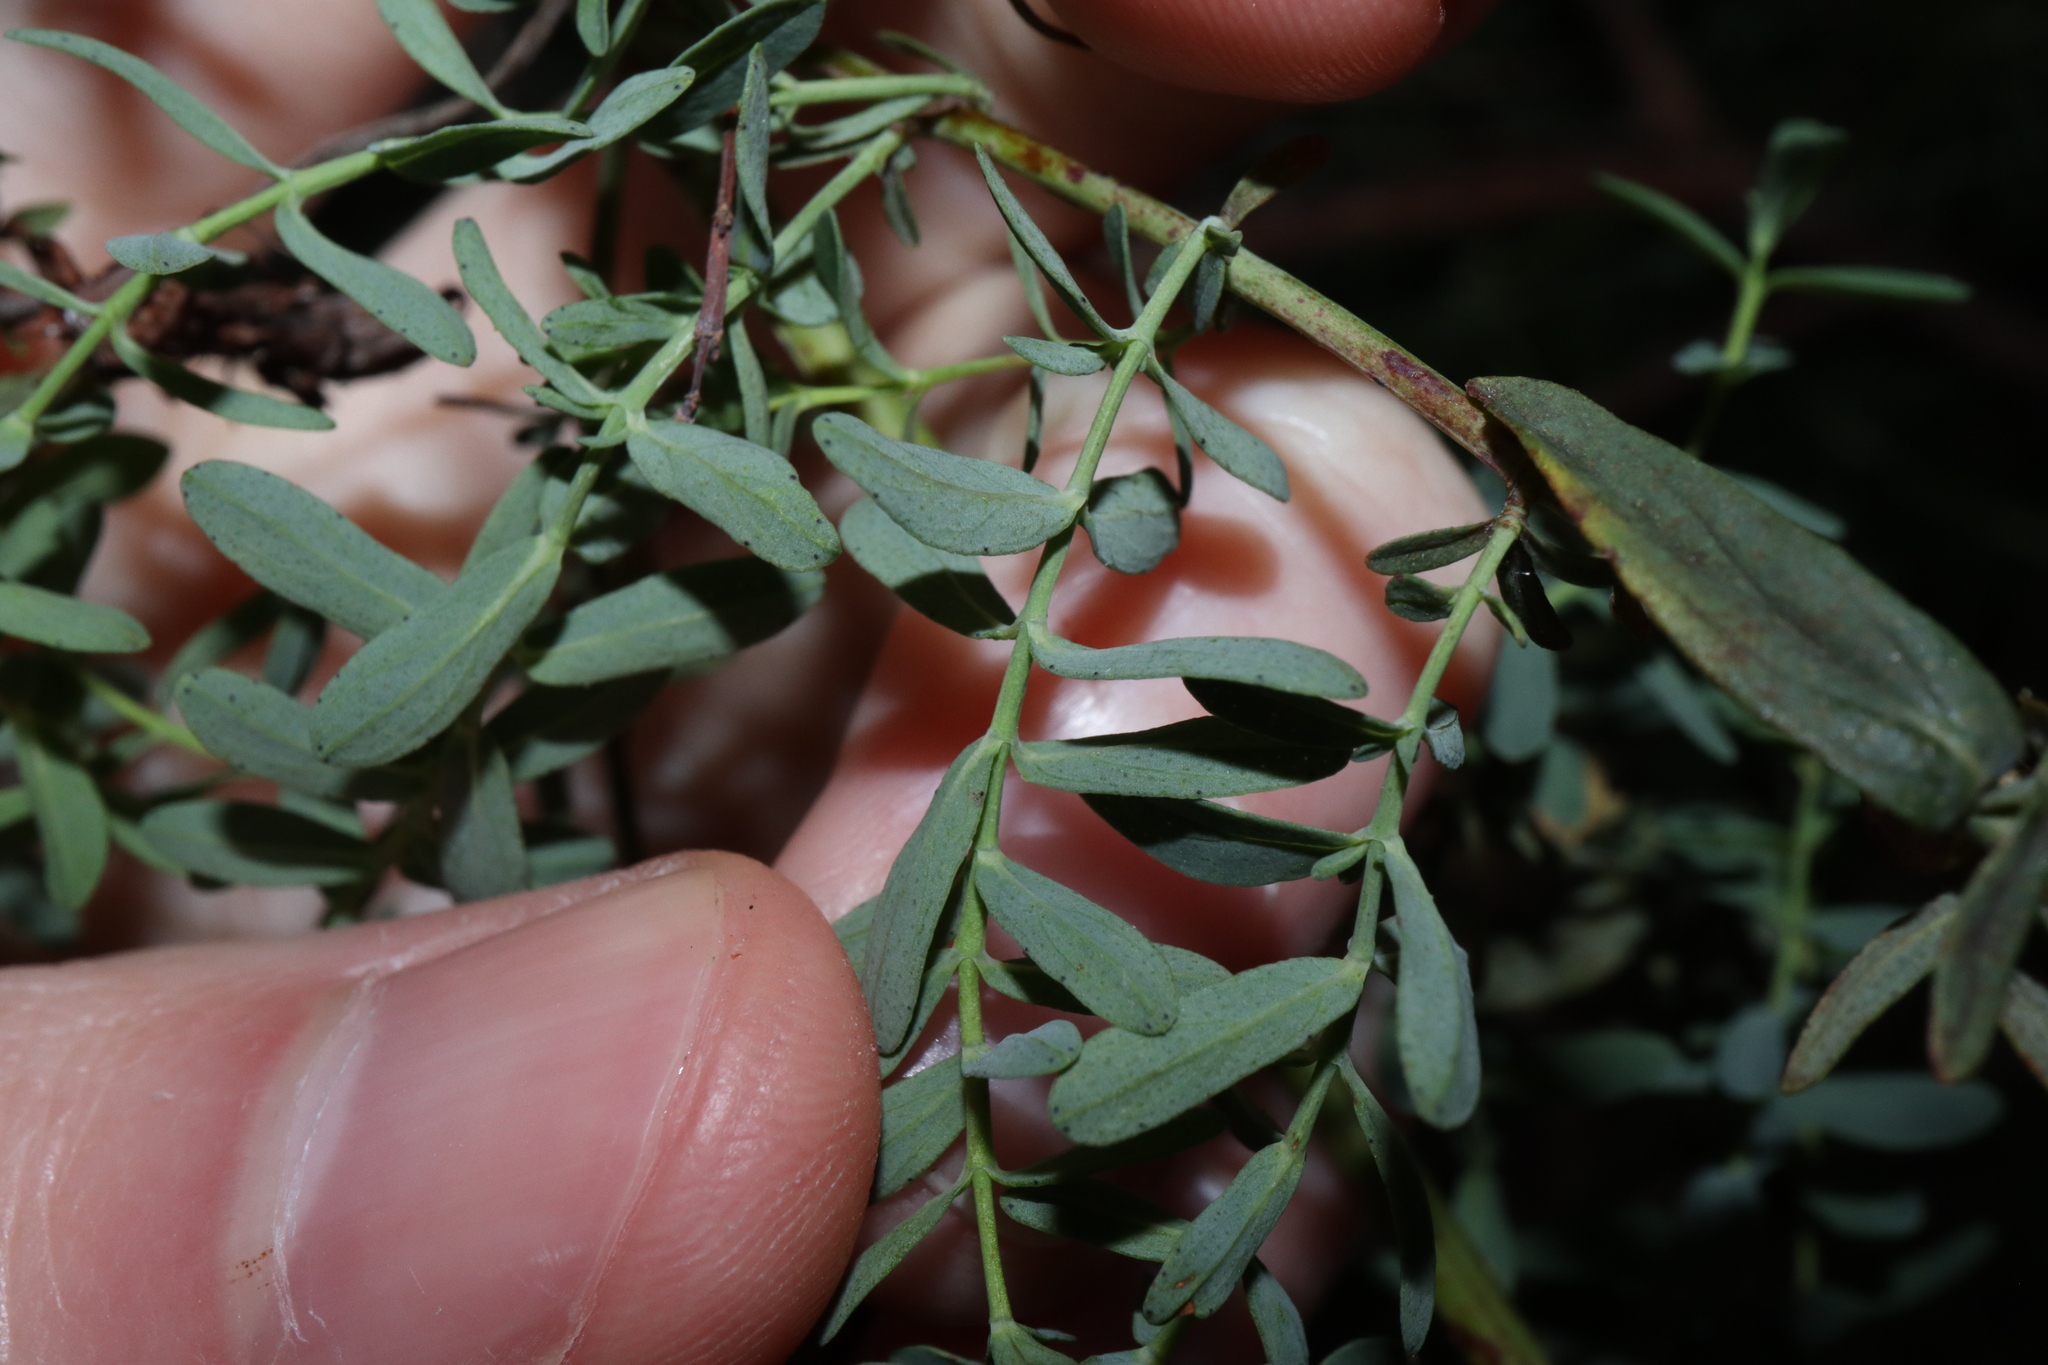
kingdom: Plantae
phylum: Tracheophyta
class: Magnoliopsida
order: Malpighiales
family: Hypericaceae
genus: Hypericum
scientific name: Hypericum perforatum
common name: Common st. johnswort
